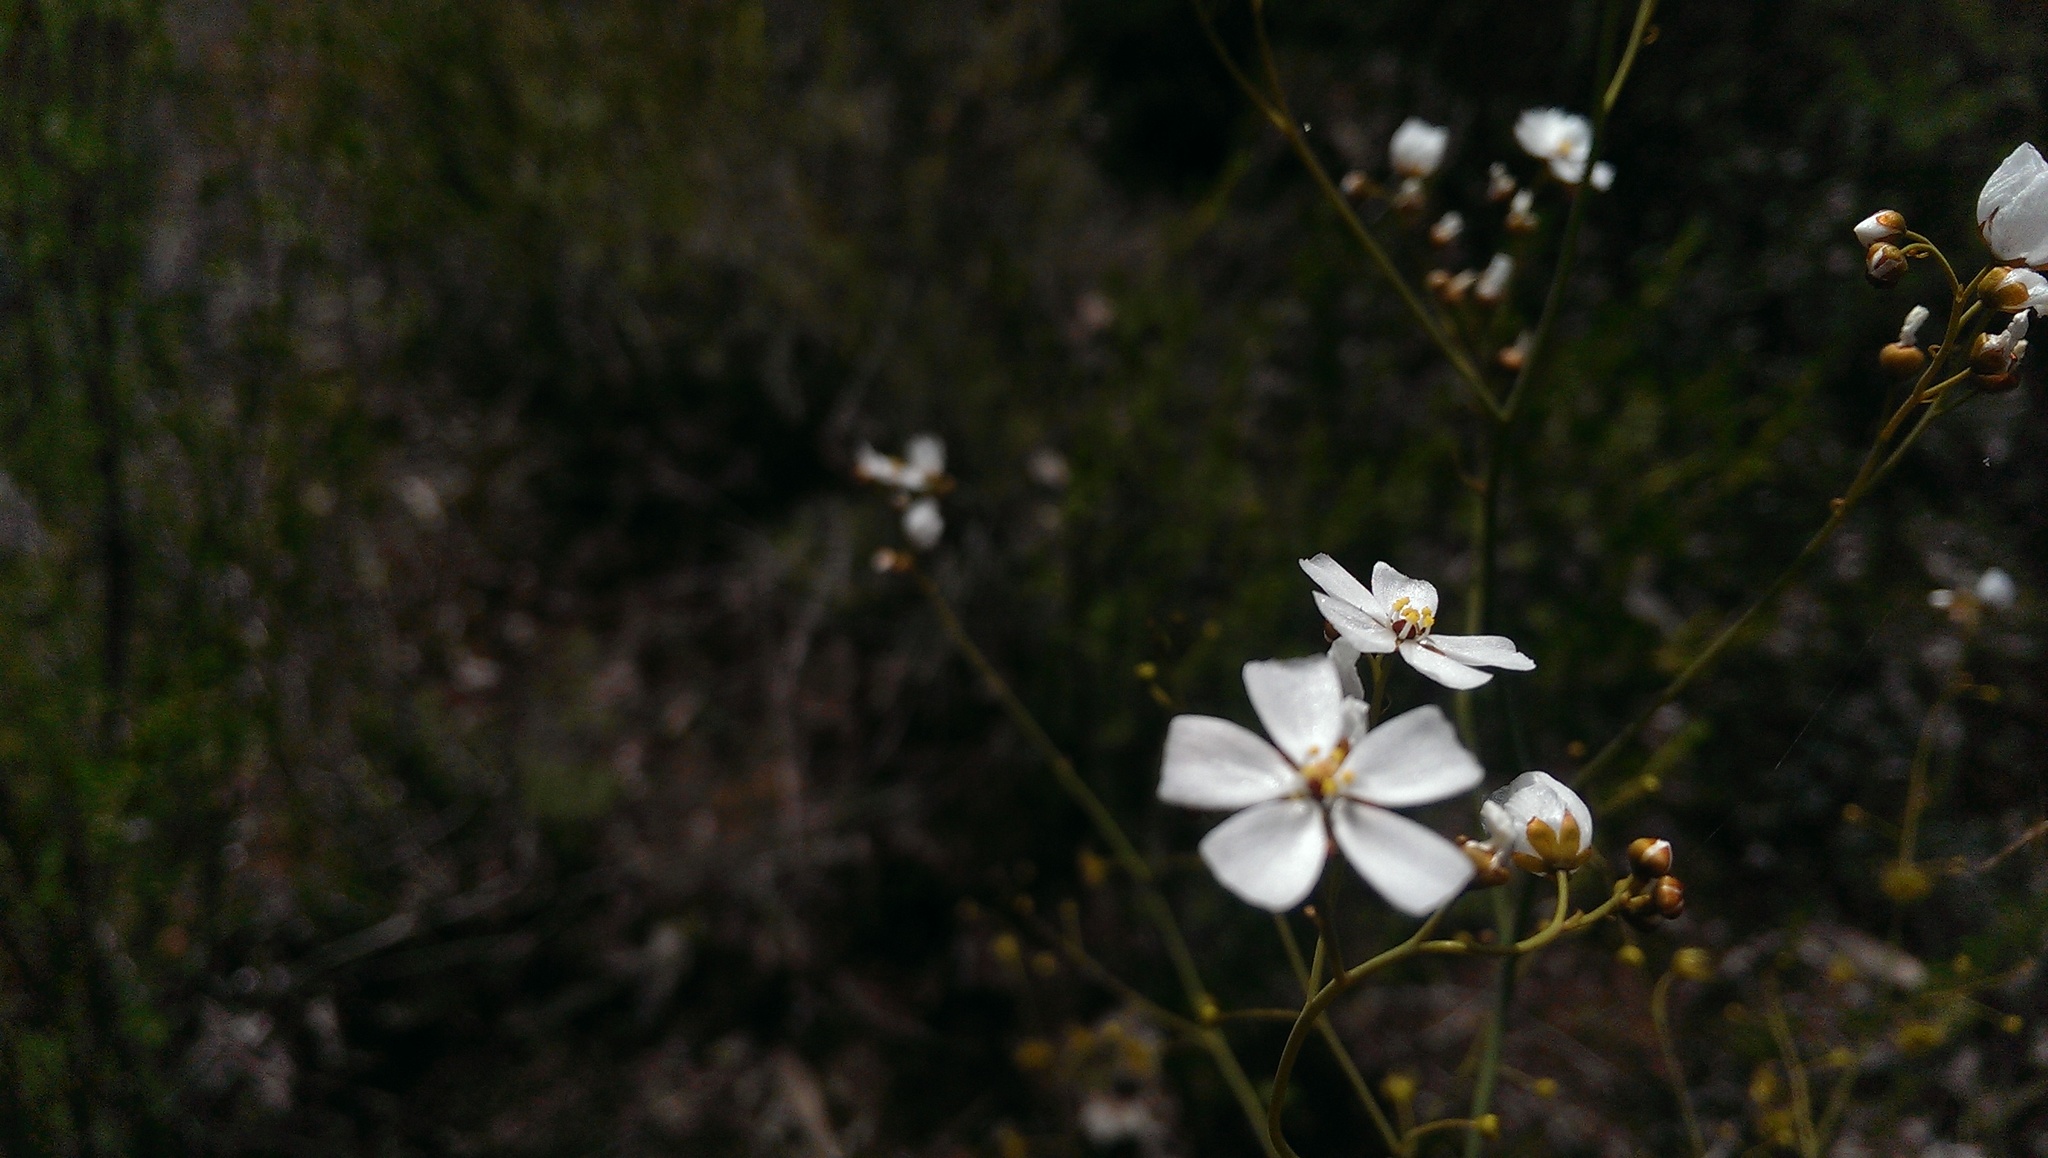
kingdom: Plantae
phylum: Tracheophyta
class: Magnoliopsida
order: Caryophyllales
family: Droseraceae
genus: Drosera
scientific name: Drosera gigantea
